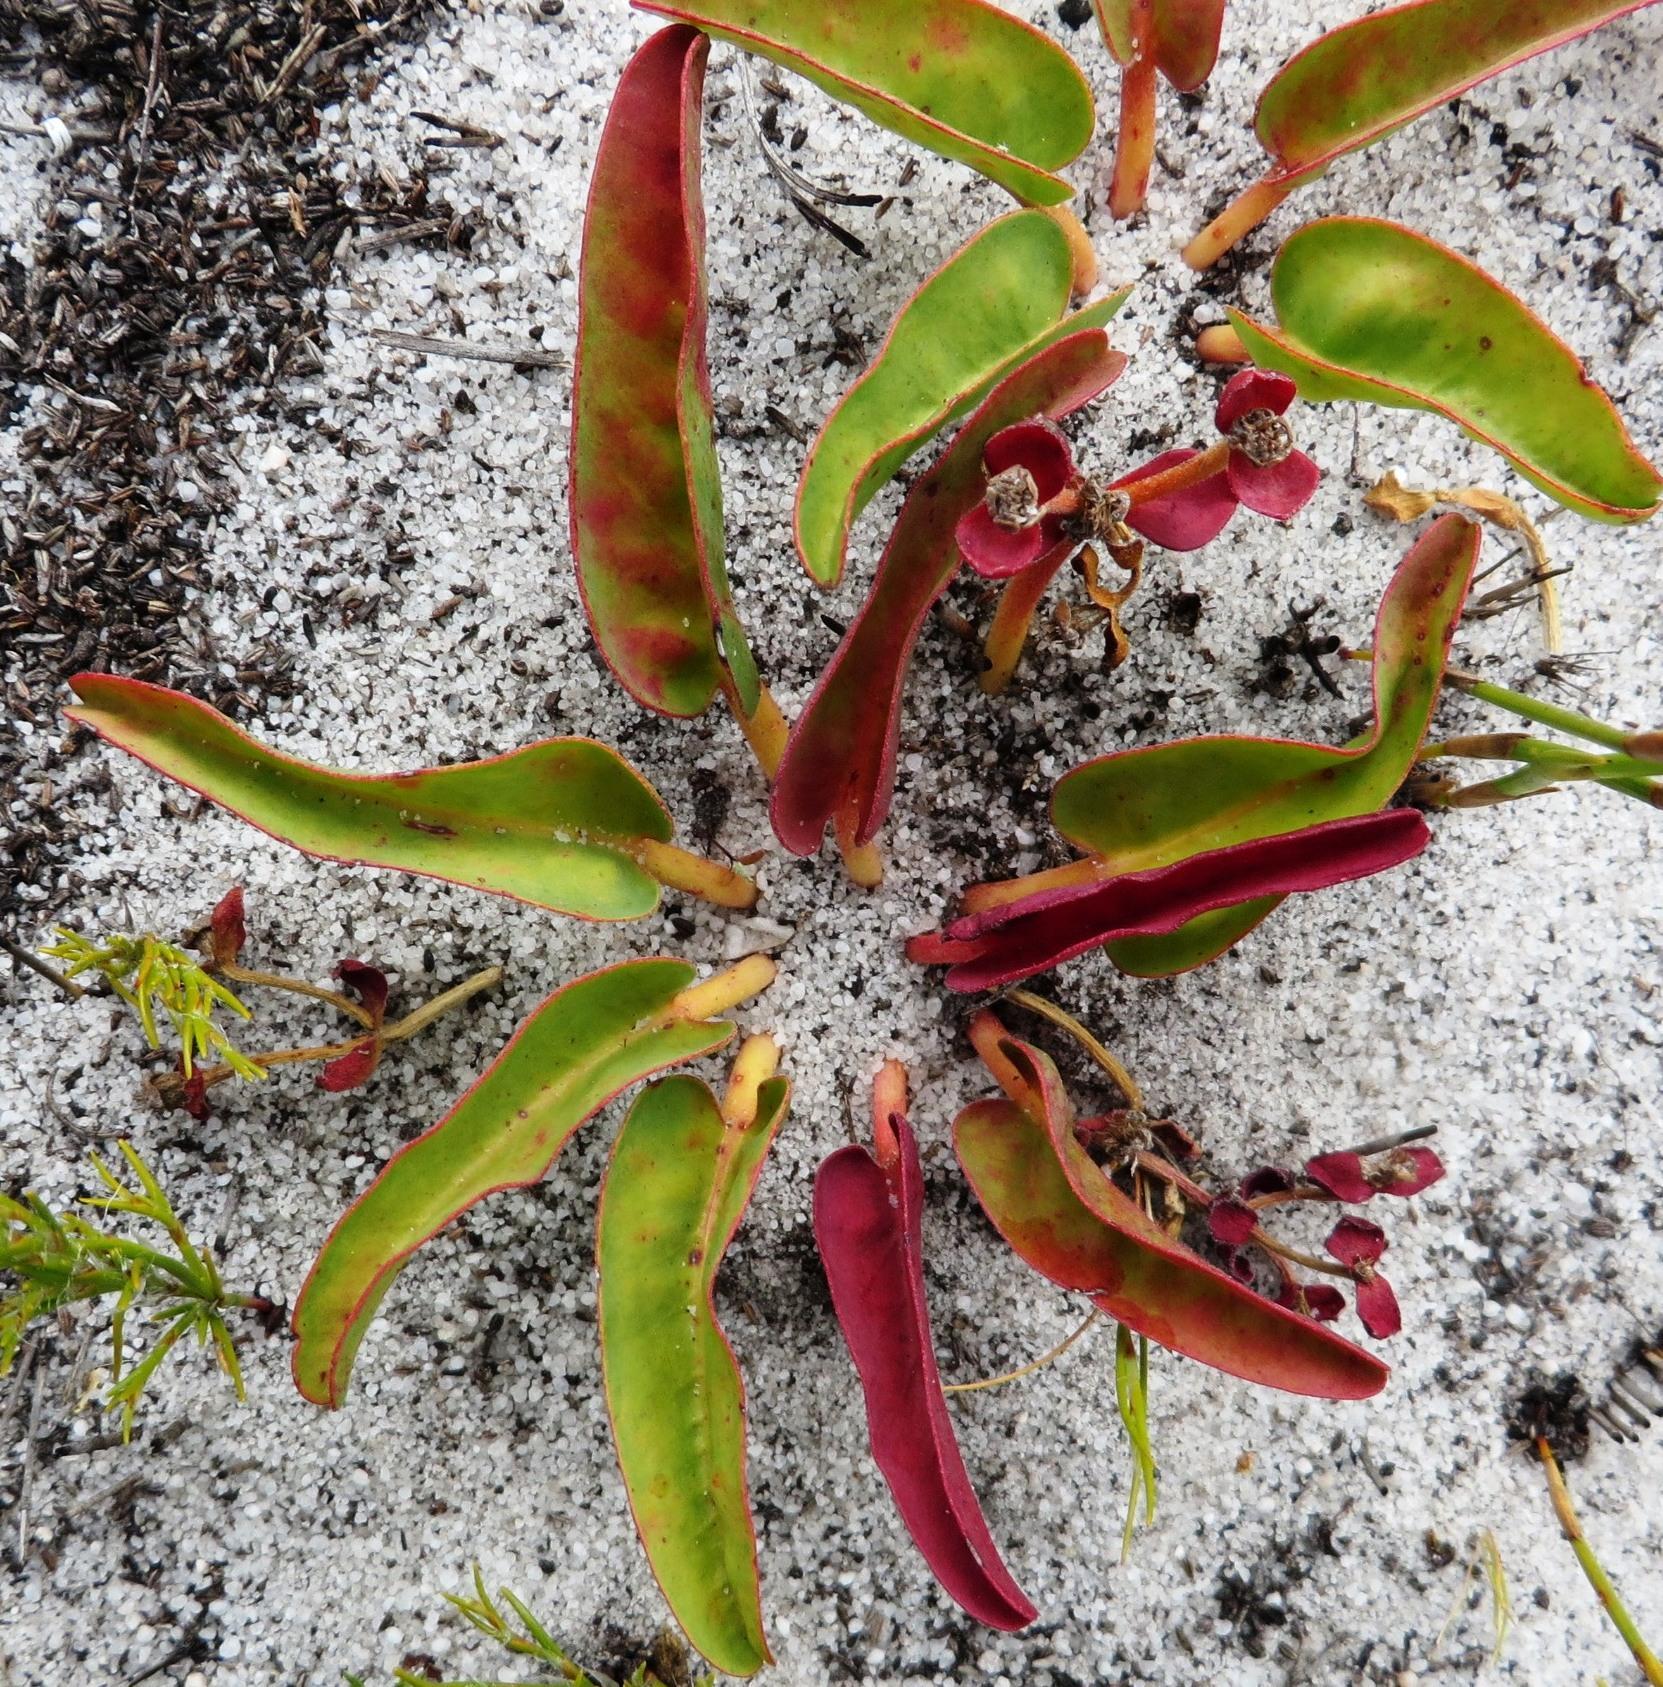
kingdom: Plantae
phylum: Tracheophyta
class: Magnoliopsida
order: Malpighiales
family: Euphorbiaceae
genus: Euphorbia
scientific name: Euphorbia tuberosa
